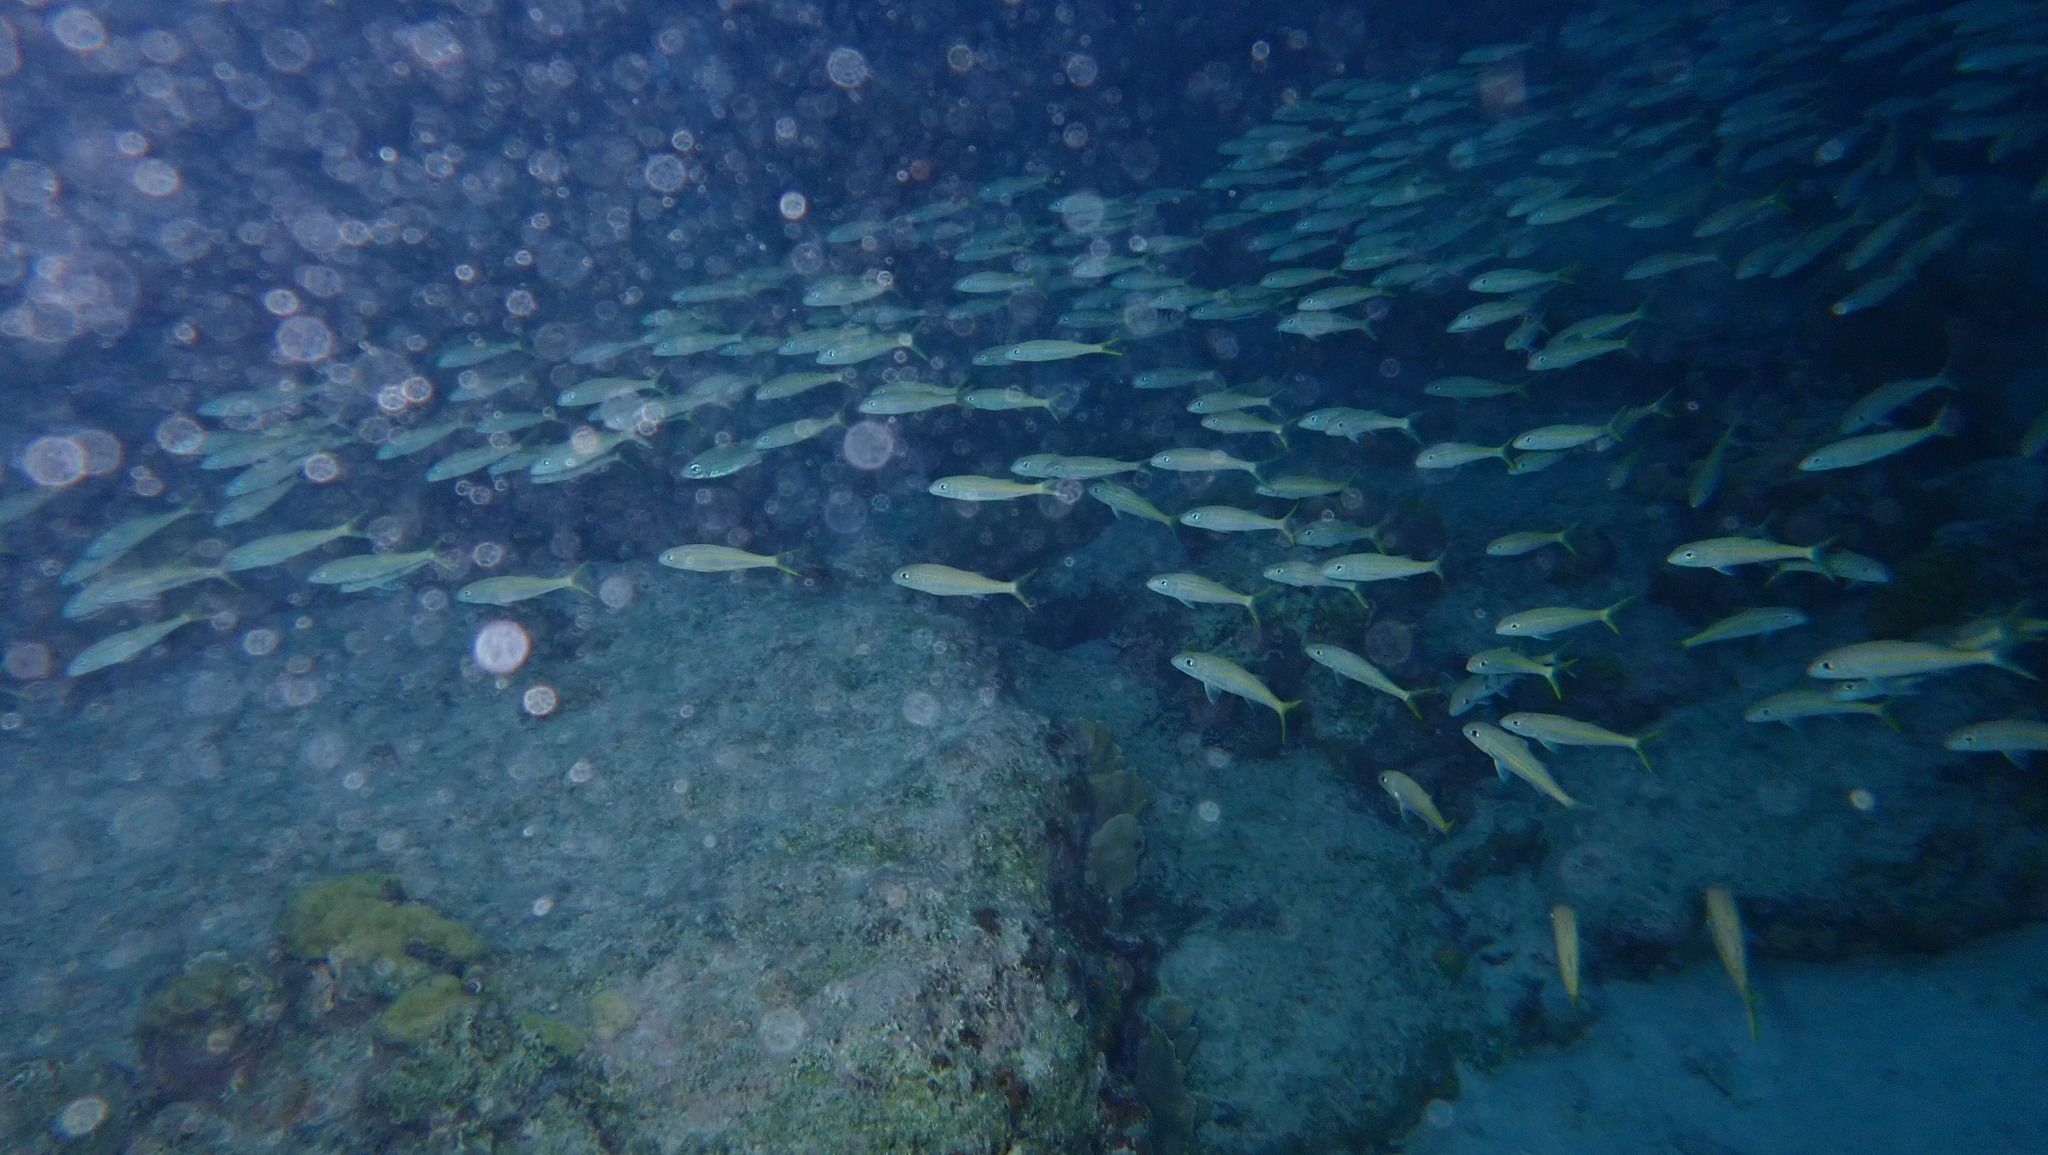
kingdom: Animalia
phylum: Chordata
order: Perciformes
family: Mullidae
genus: Mulloidichthys
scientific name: Mulloidichthys martinicus
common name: Yellow goatfish
